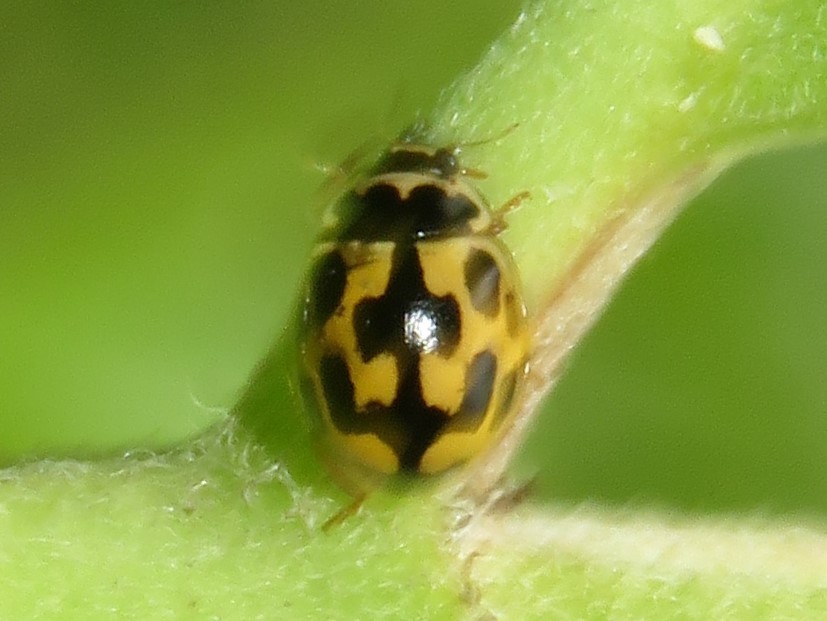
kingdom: Animalia
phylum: Arthropoda
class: Insecta
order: Coleoptera
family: Coccinellidae
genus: Propylaea
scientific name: Propylaea quatuordecimpunctata
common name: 14-spotted ladybird beetle
